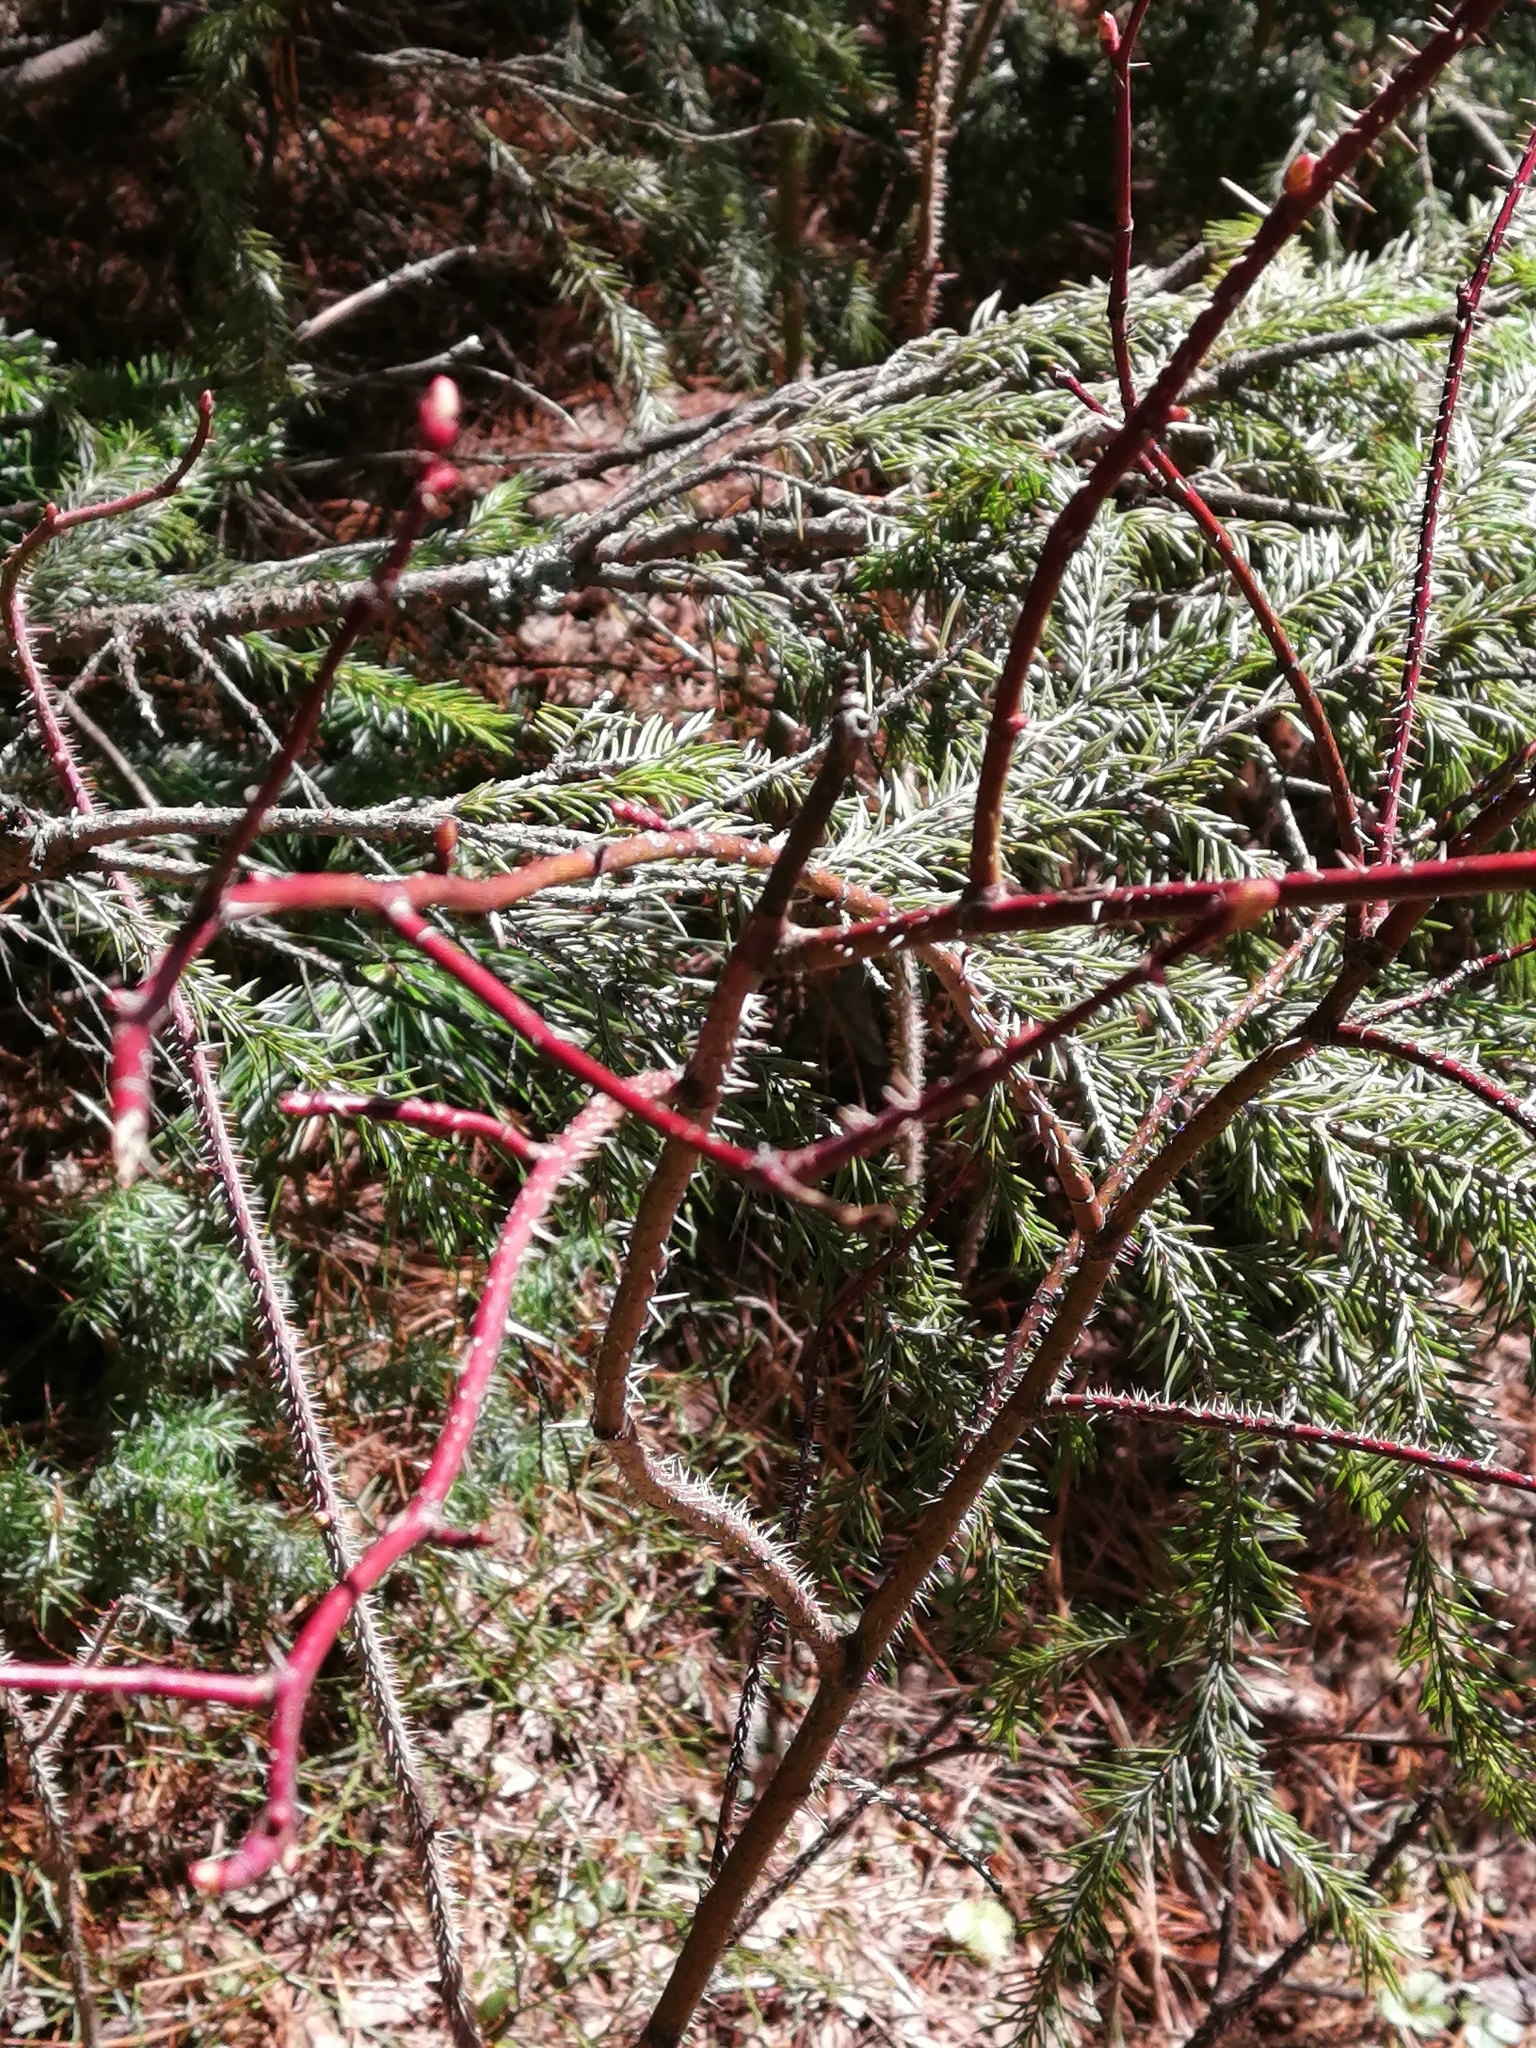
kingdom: Plantae
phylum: Tracheophyta
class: Magnoliopsida
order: Rosales
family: Rosaceae
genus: Rosa
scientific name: Rosa acicularis
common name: Prickly rose
